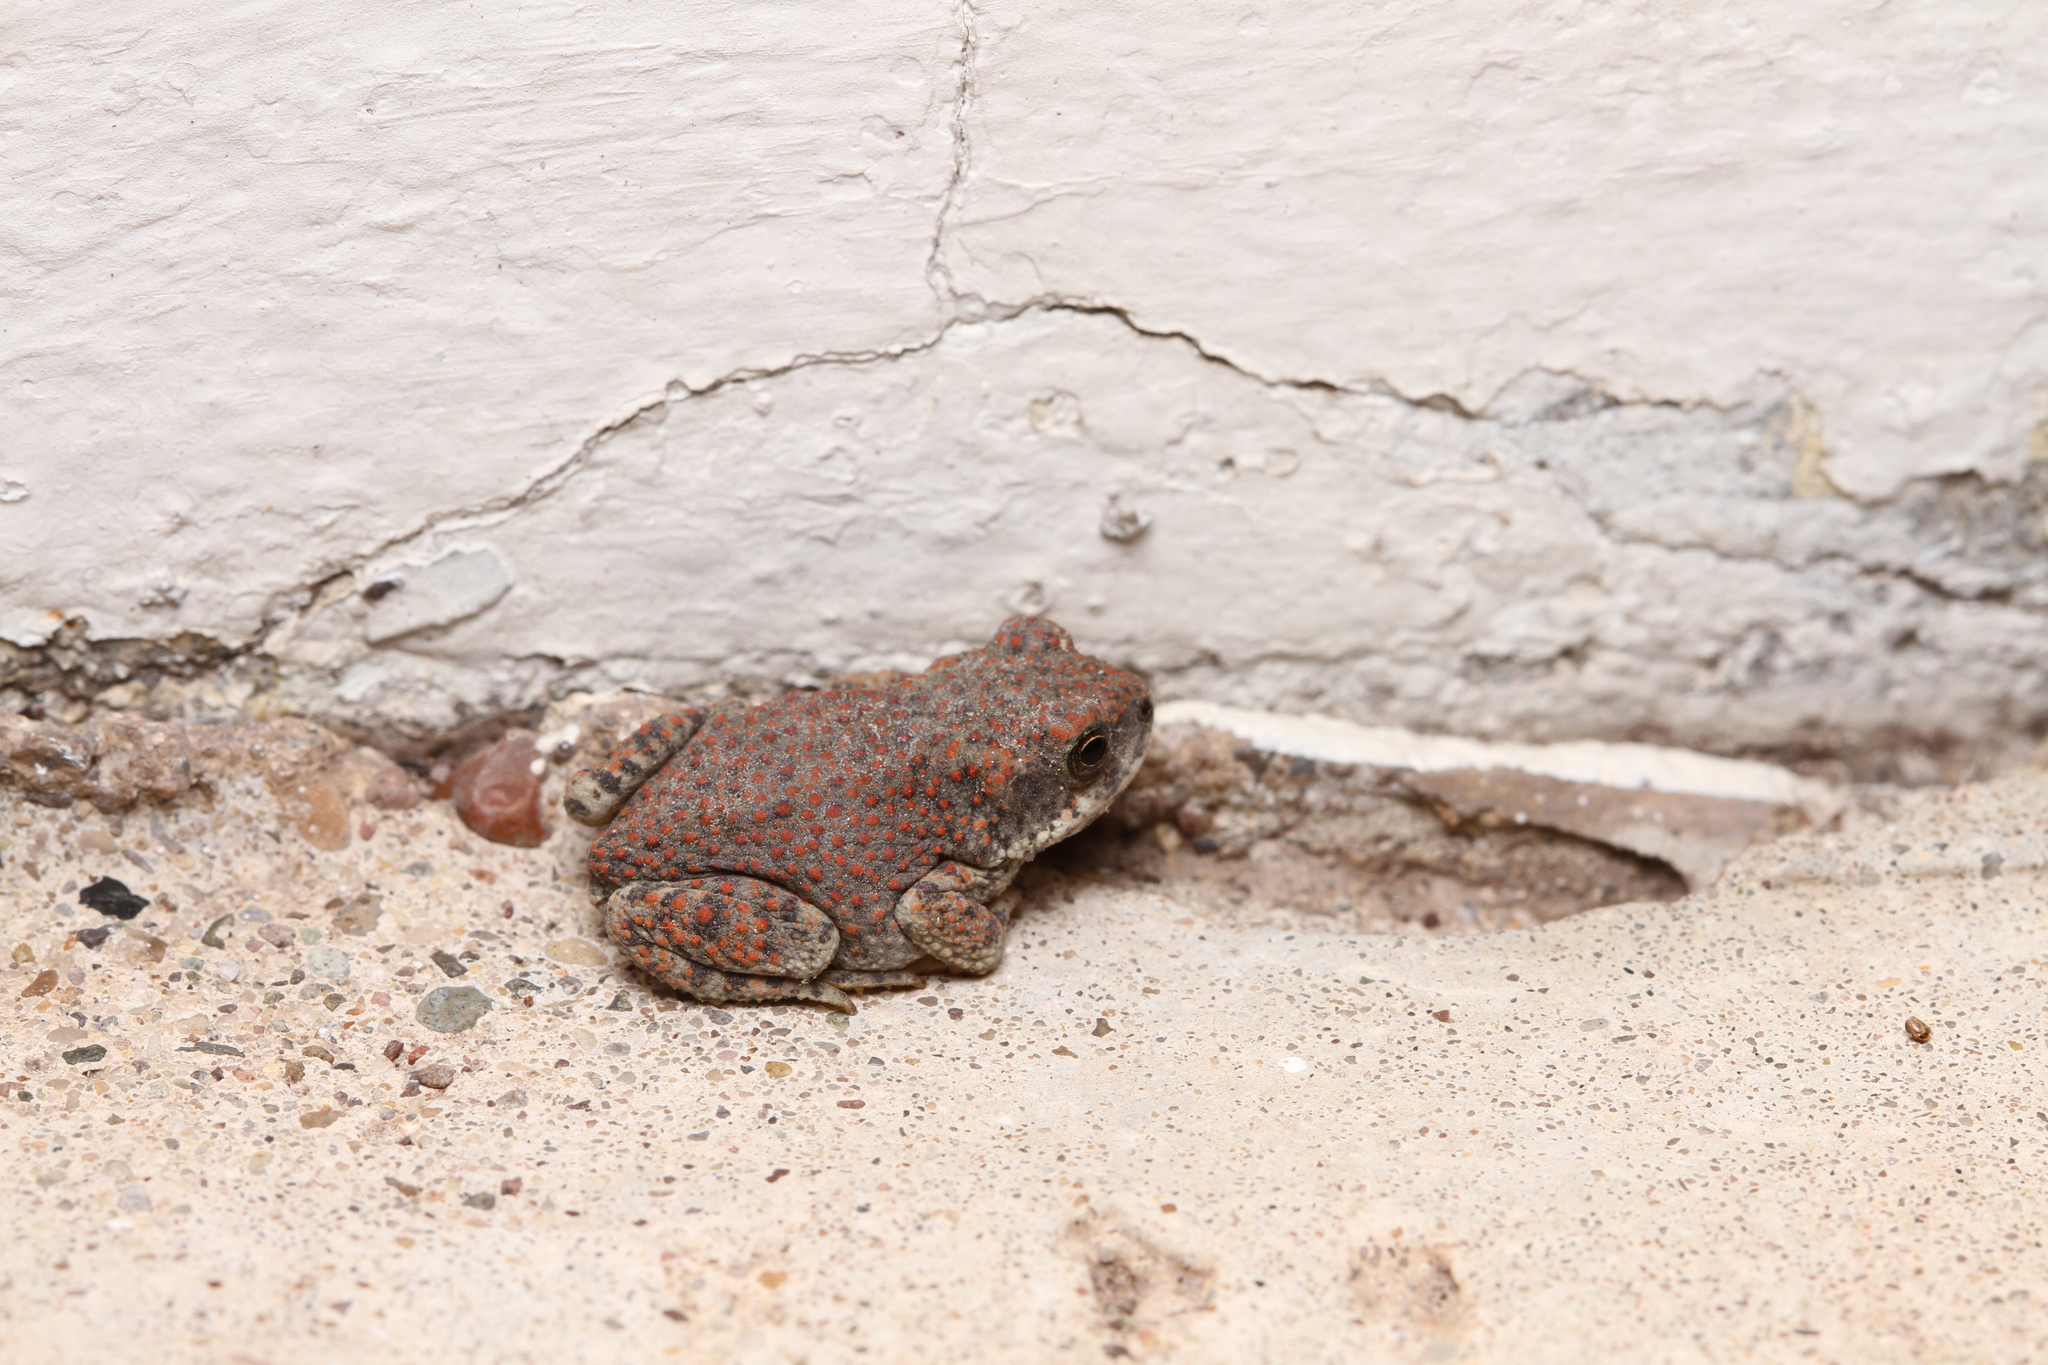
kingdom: Animalia
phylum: Chordata
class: Amphibia
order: Anura
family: Bufonidae
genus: Anaxyrus
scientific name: Anaxyrus punctatus
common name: Red-spotted toad
